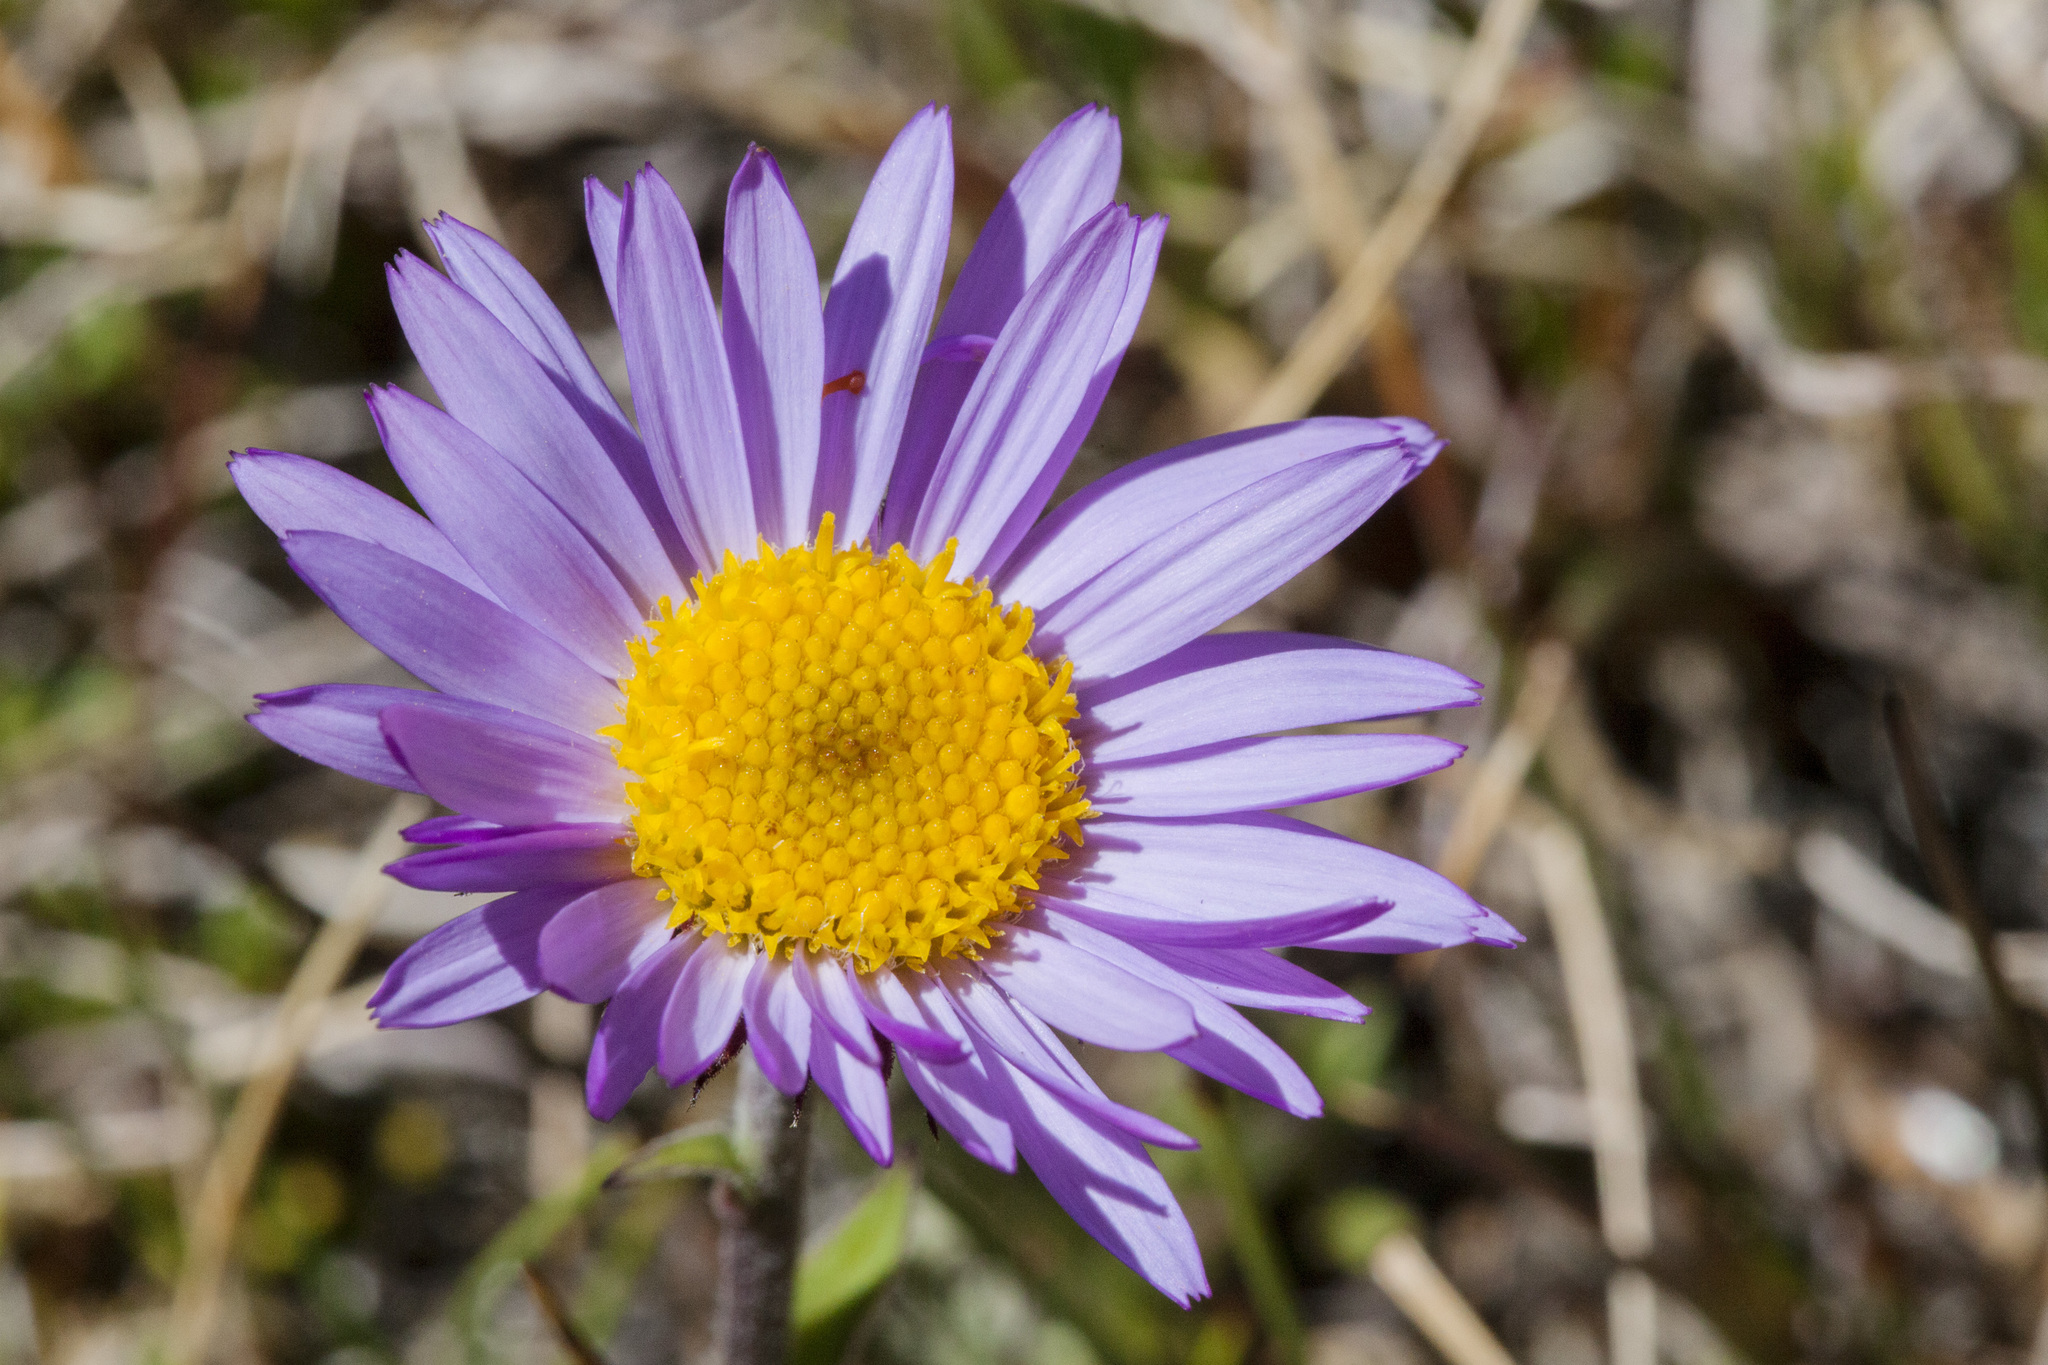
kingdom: Plantae
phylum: Tracheophyta
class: Magnoliopsida
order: Asterales
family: Asteraceae
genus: Erigeron
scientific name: Erigeron glacialis
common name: Subalpine fleabane
